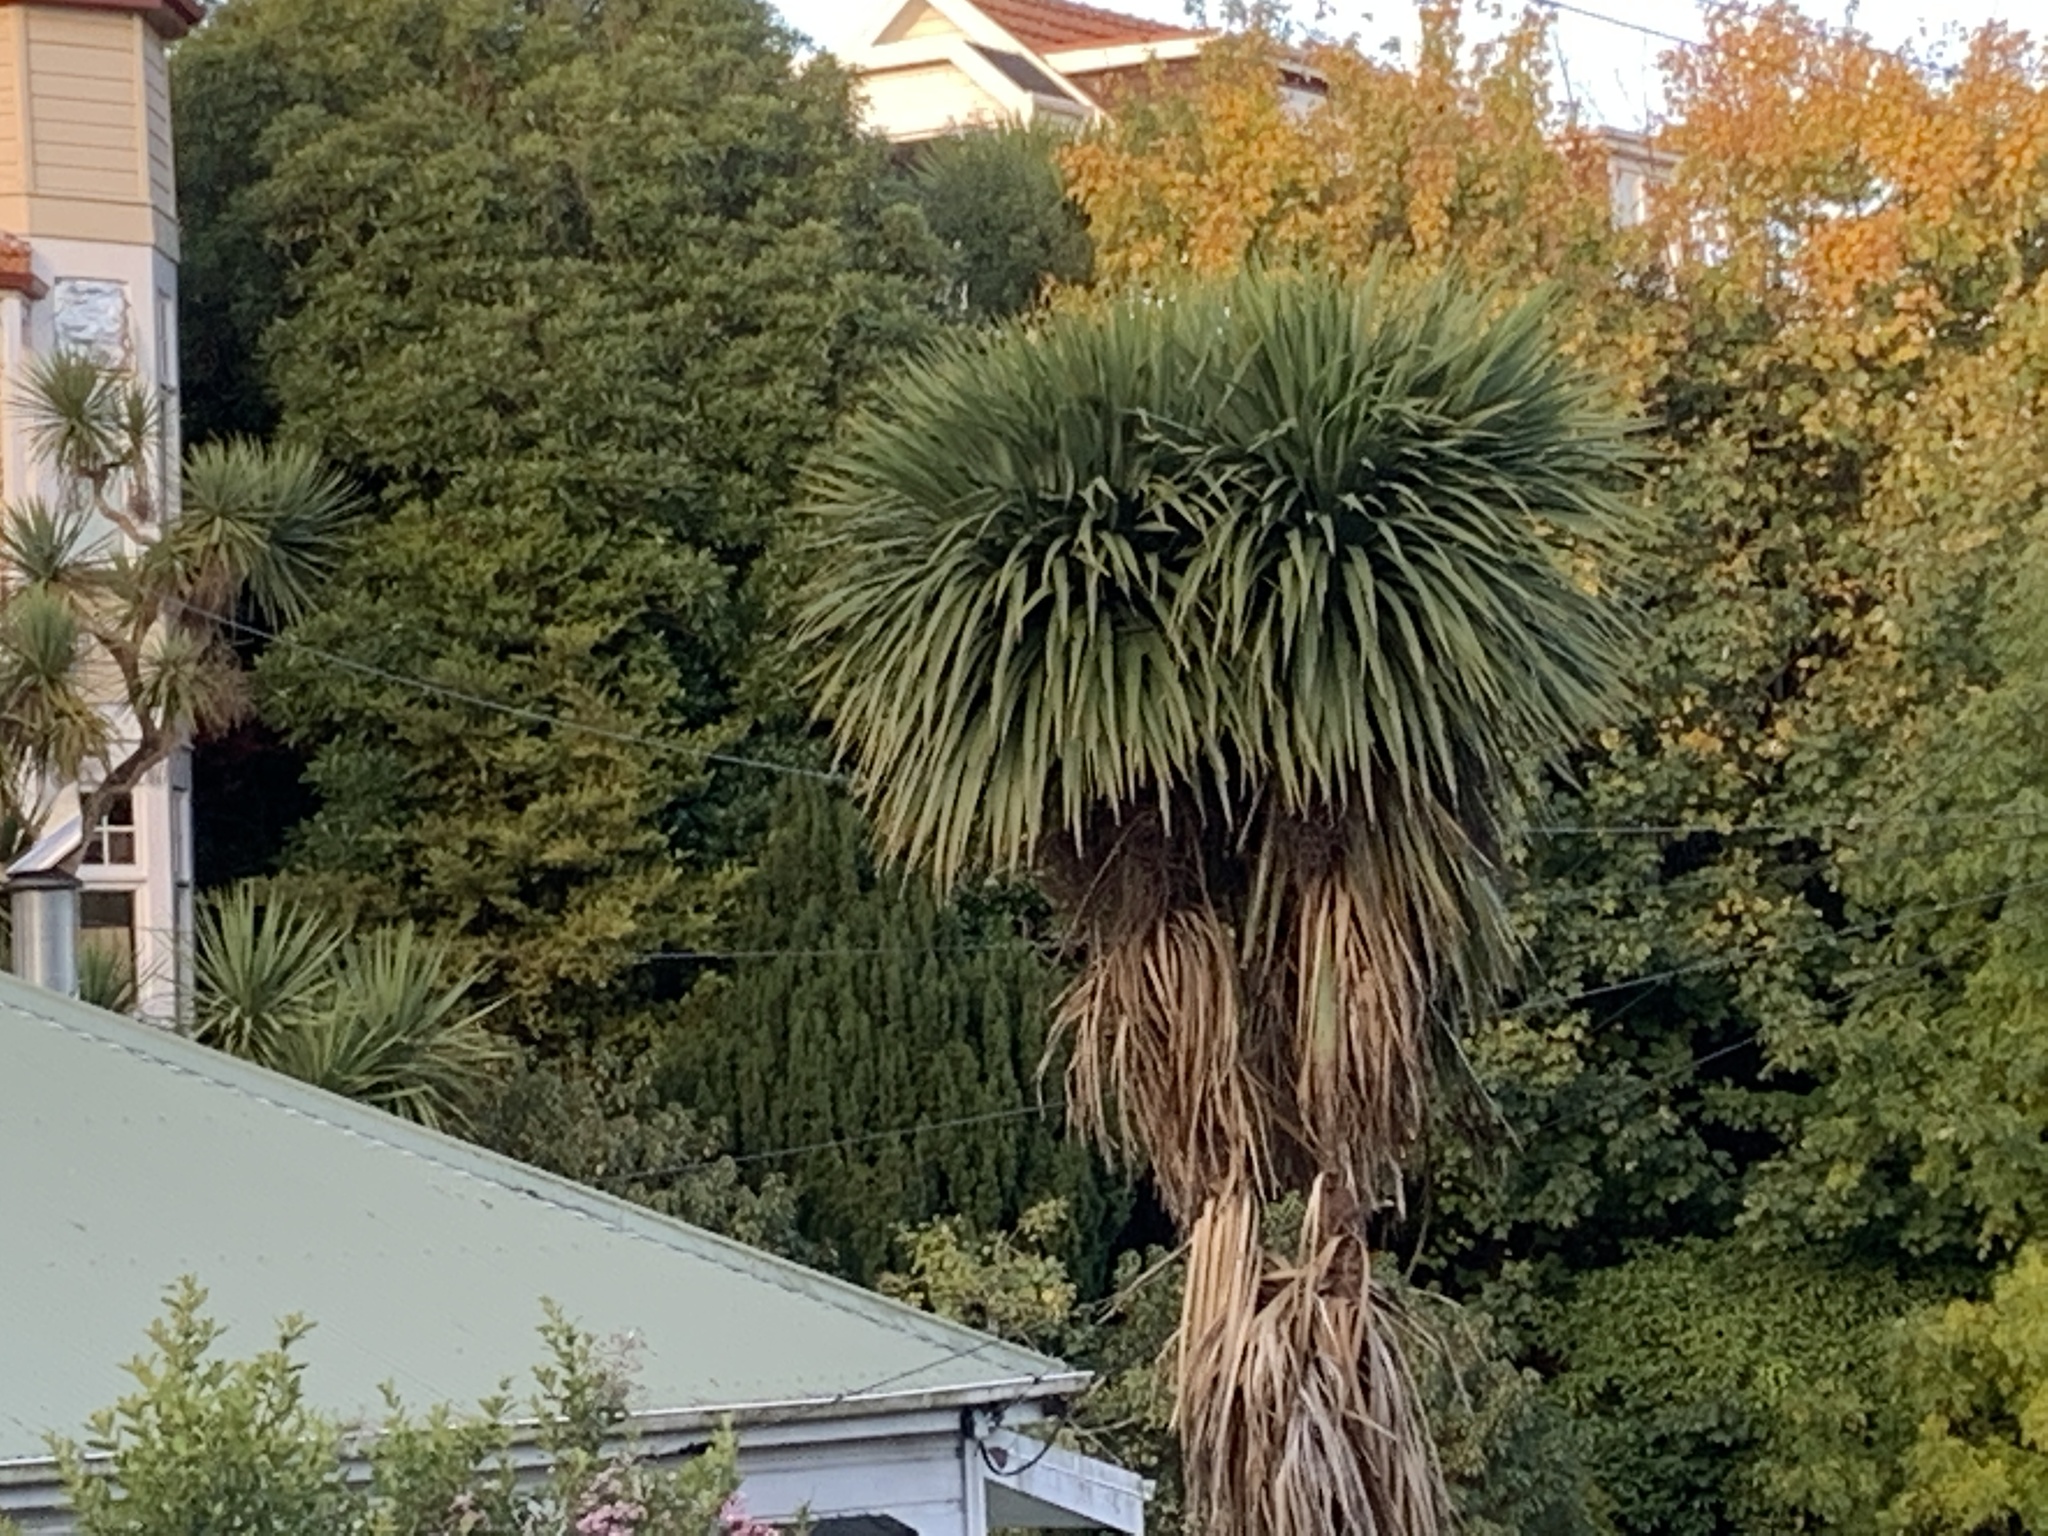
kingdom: Plantae
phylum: Tracheophyta
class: Liliopsida
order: Asparagales
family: Asparagaceae
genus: Cordyline
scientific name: Cordyline australis
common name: Cabbage-palm
